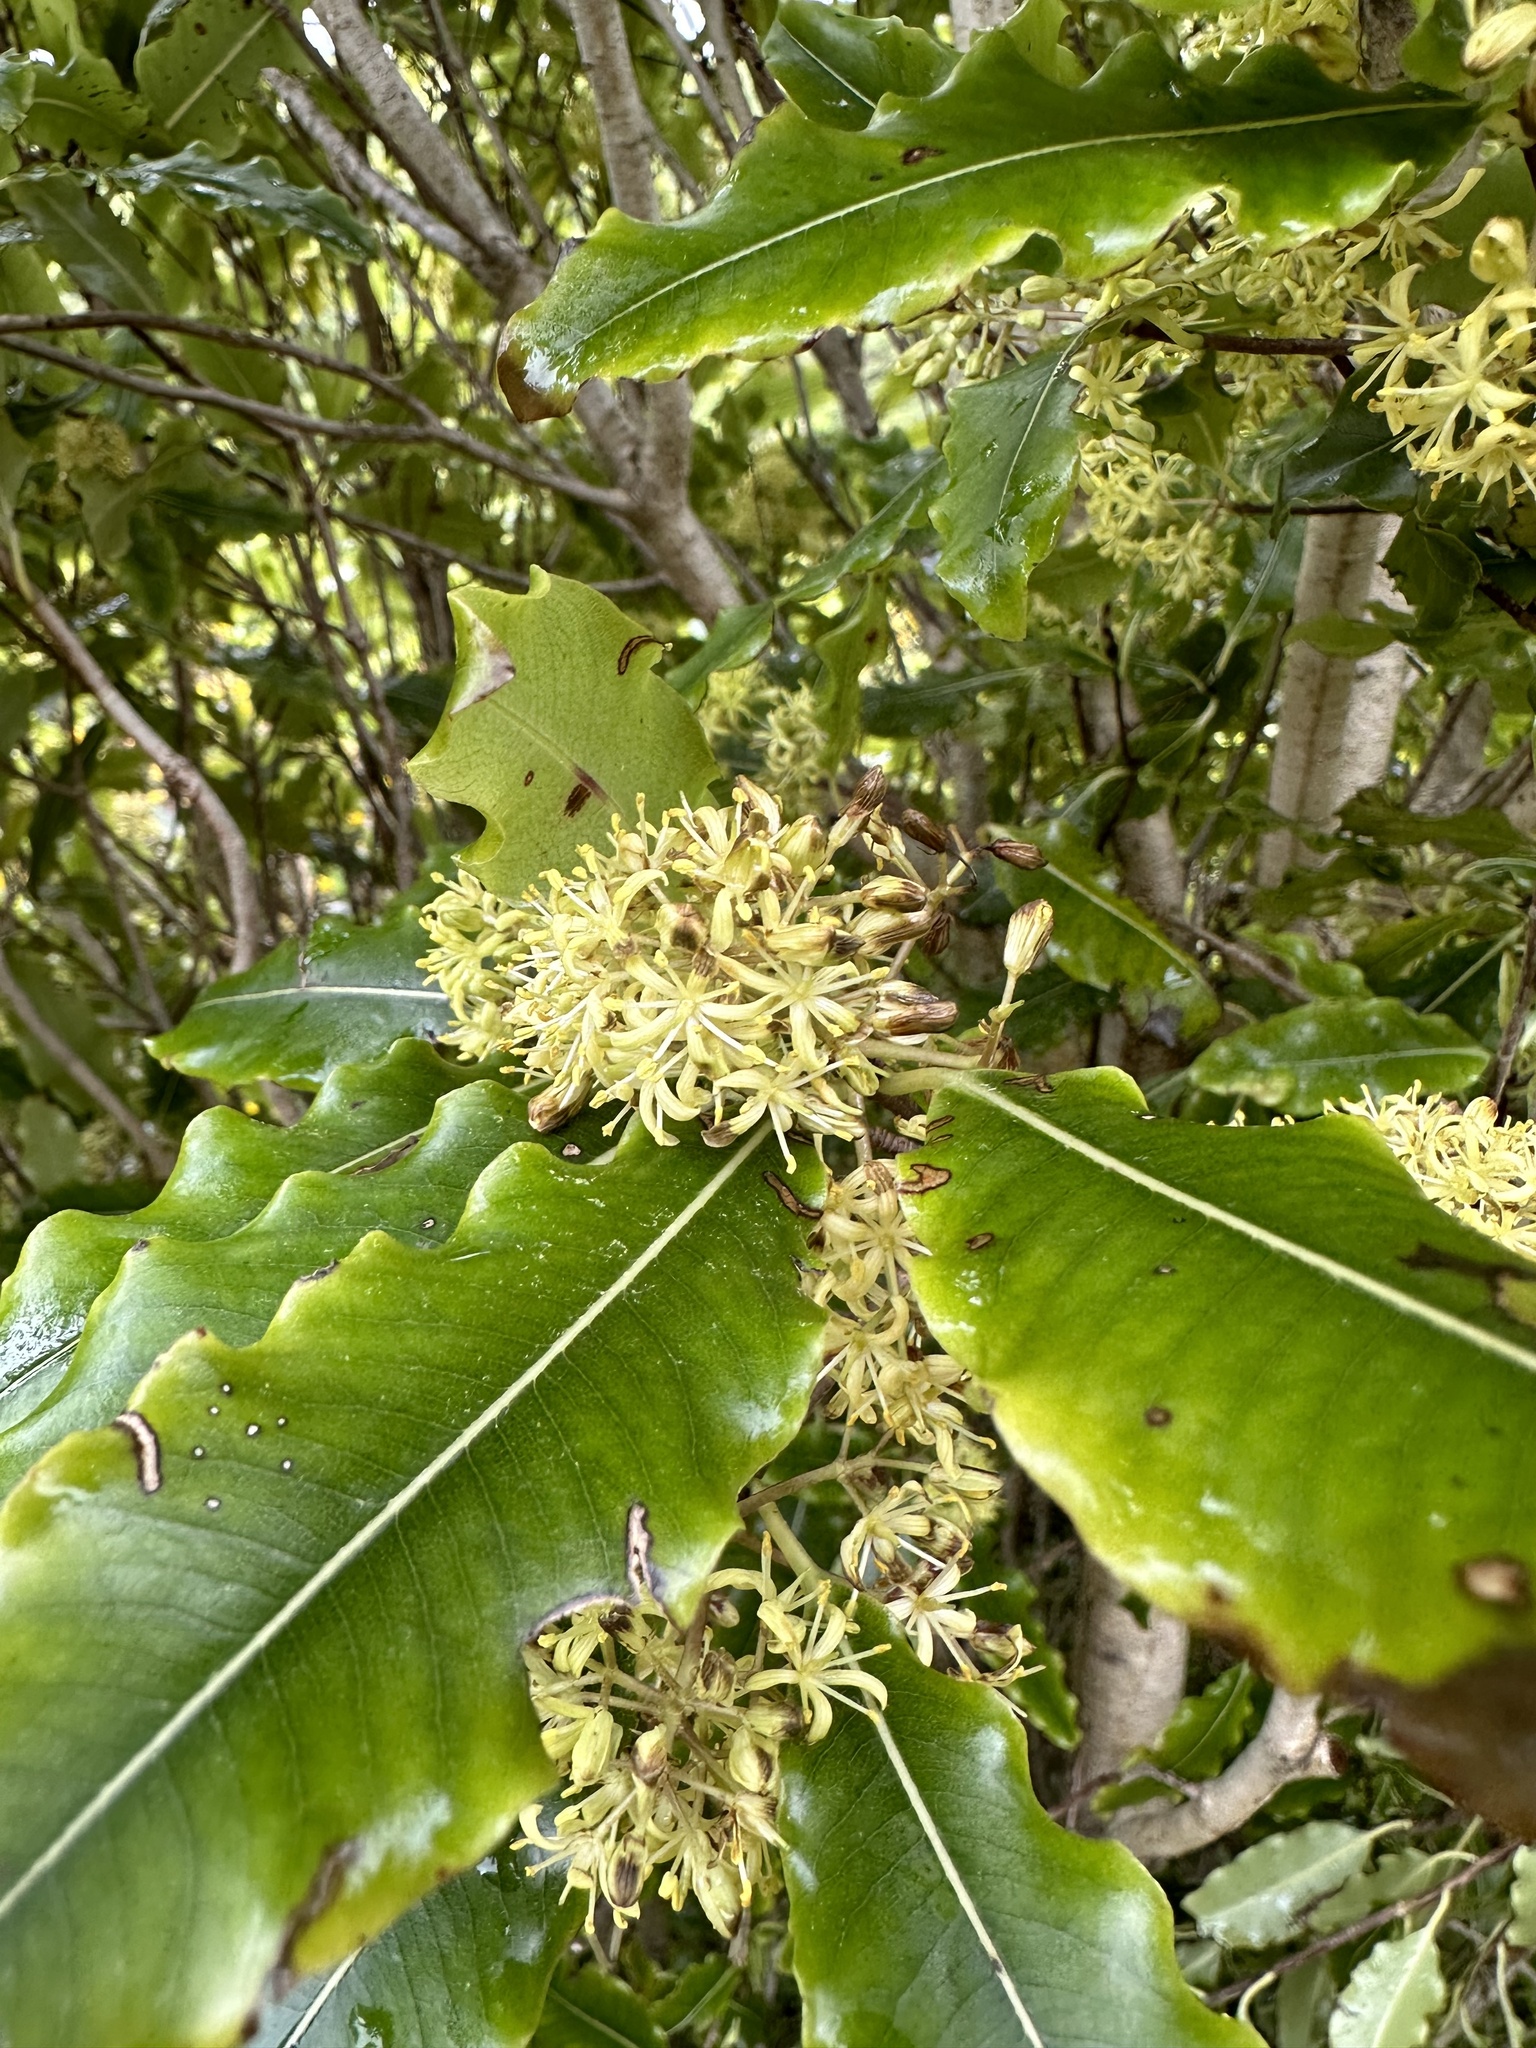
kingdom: Plantae
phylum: Tracheophyta
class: Magnoliopsida
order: Apiales
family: Pittosporaceae
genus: Pittosporum
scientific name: Pittosporum eugenioides
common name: Lemonwood
